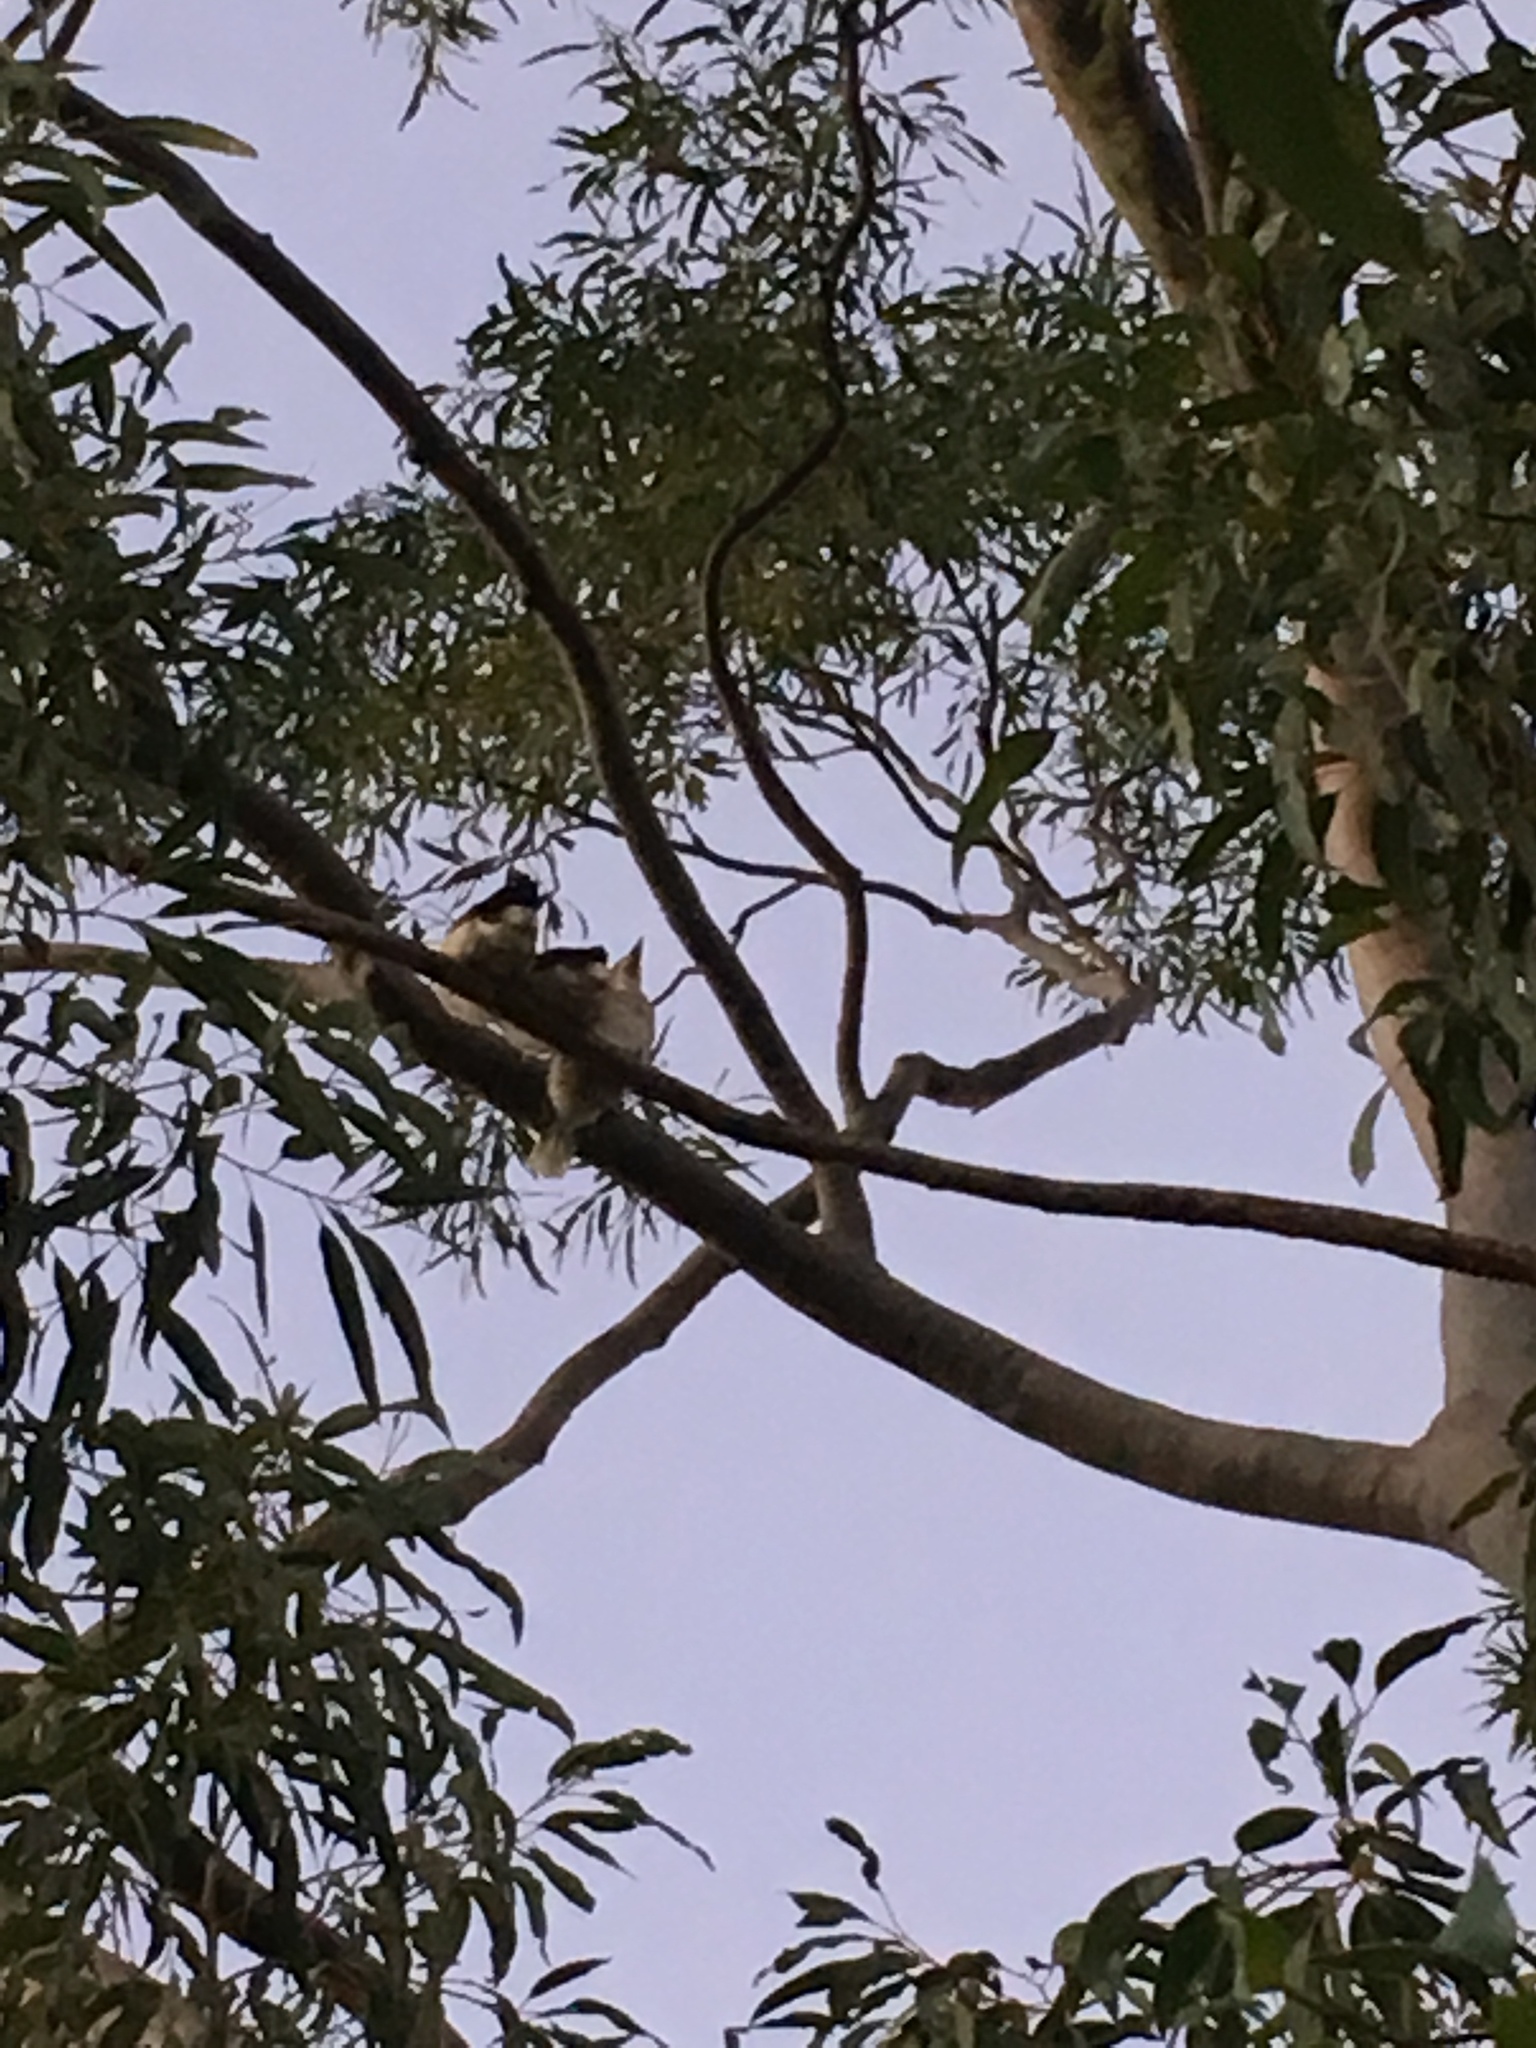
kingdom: Animalia
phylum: Chordata
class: Aves
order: Coraciiformes
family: Alcedinidae
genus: Dacelo
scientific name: Dacelo novaeguineae
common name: Laughing kookaburra
